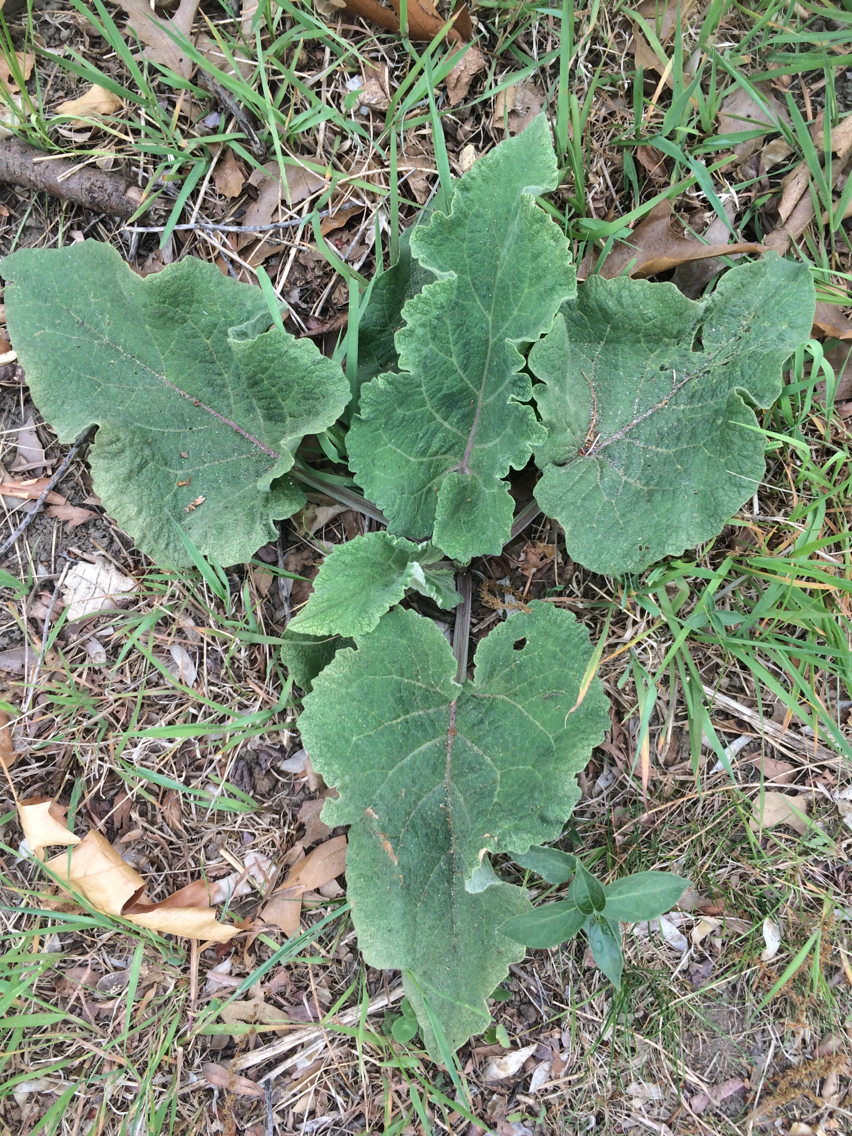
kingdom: Plantae
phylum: Tracheophyta
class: Magnoliopsida
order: Asterales
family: Asteraceae
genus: Arctium
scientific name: Arctium
